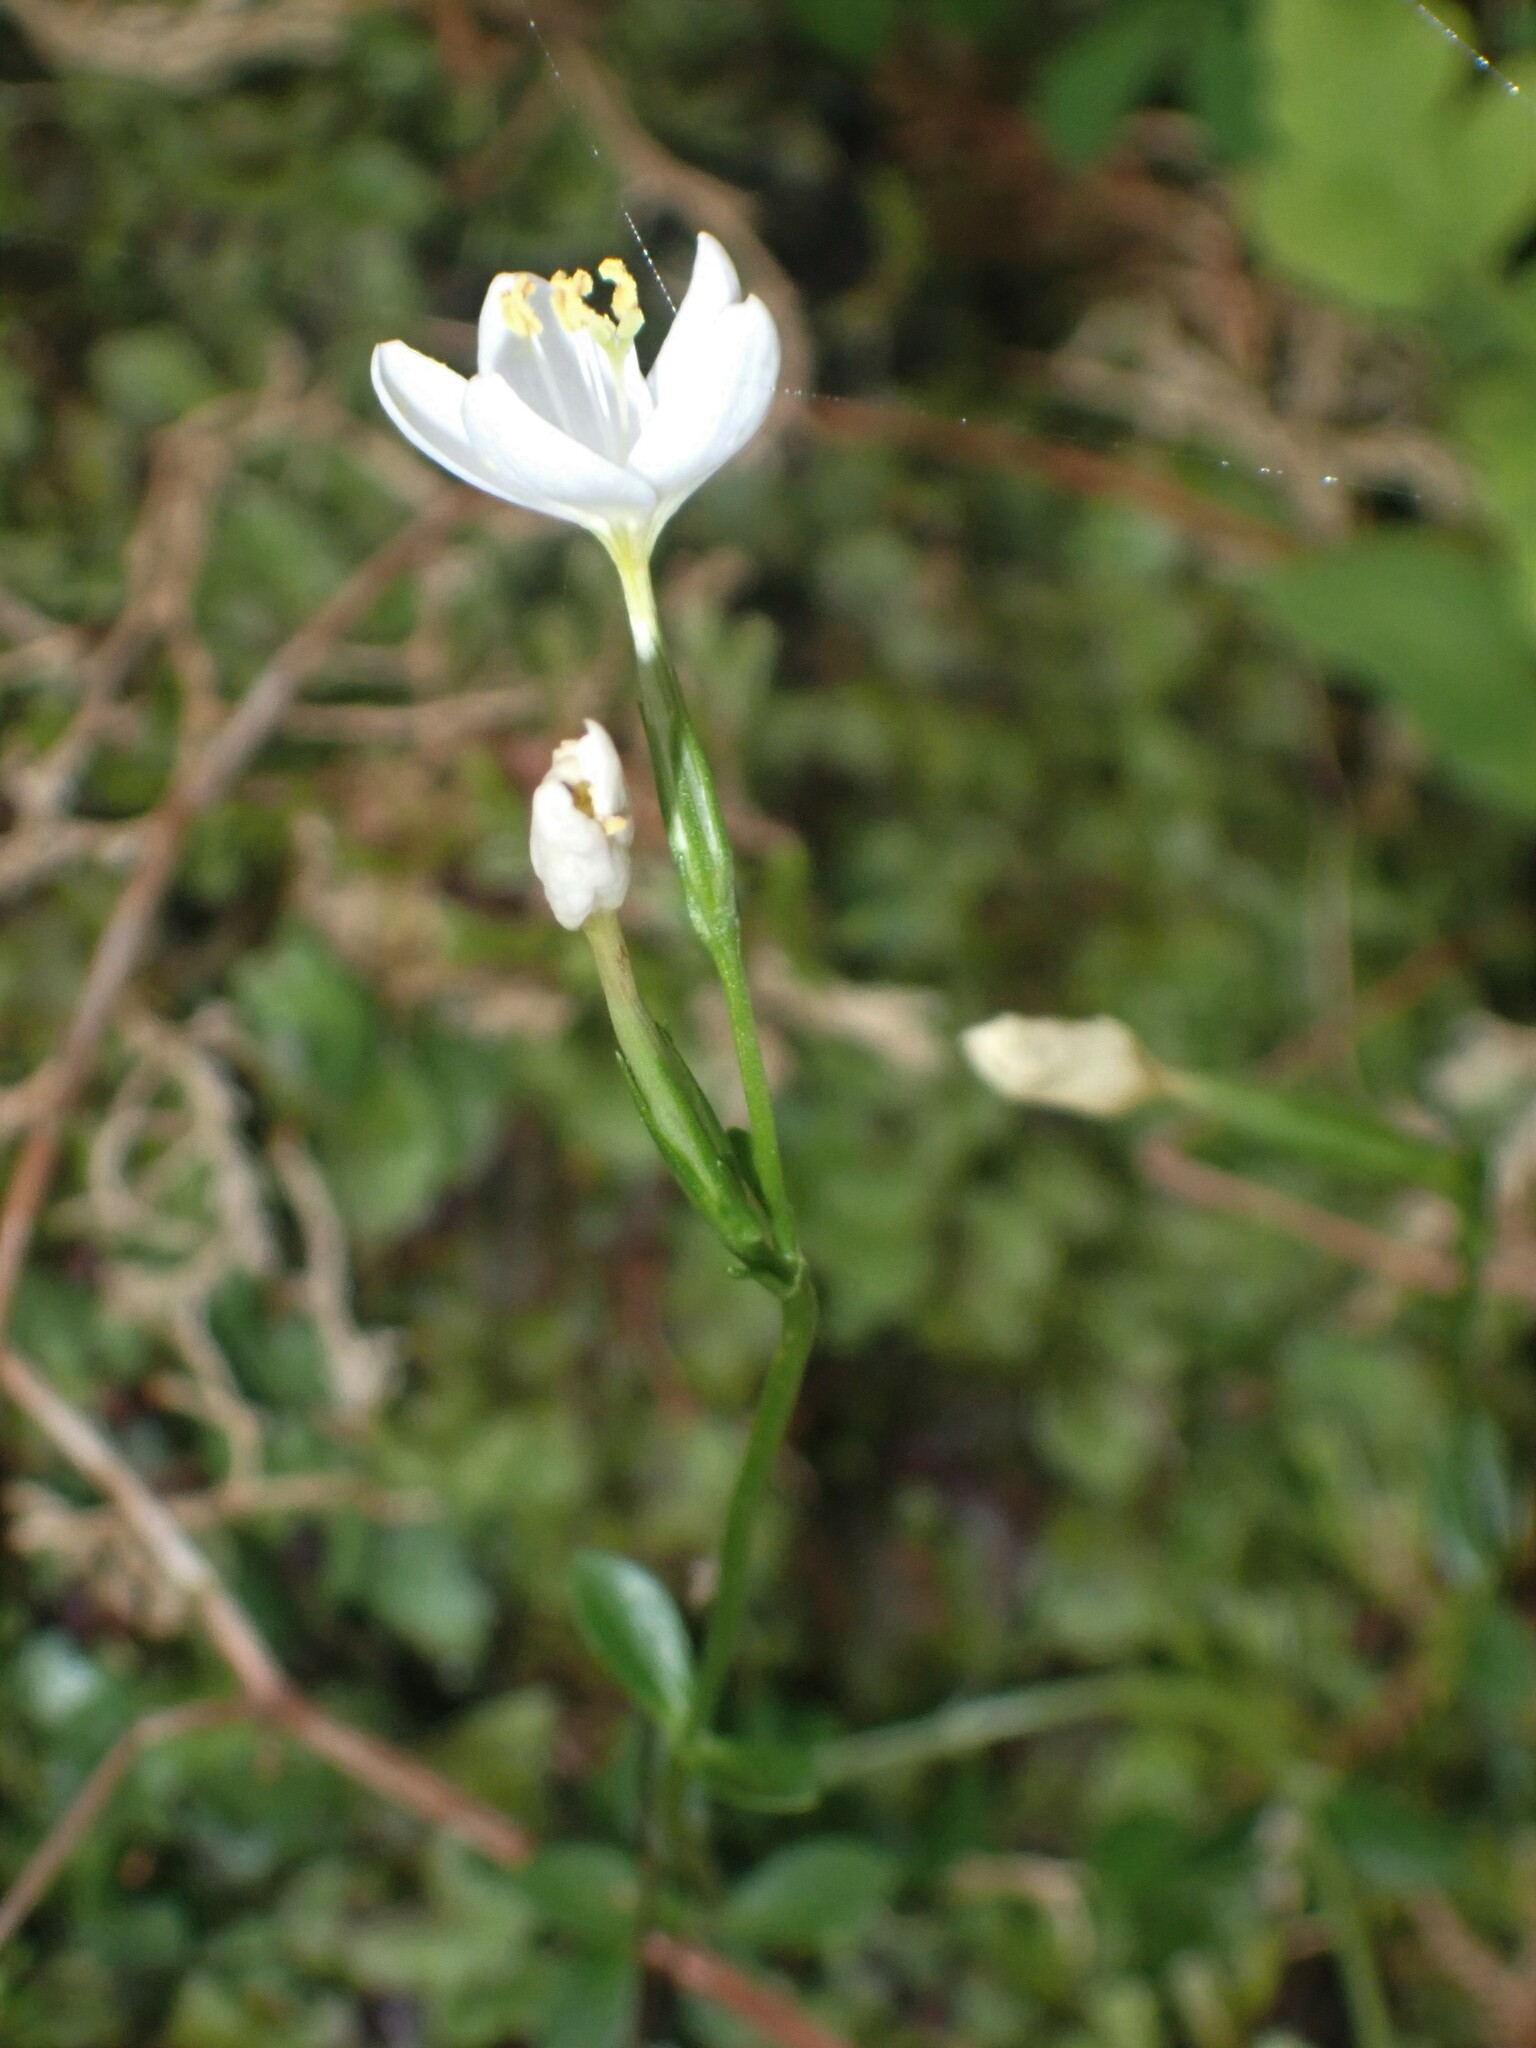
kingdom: Plantae
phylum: Tracheophyta
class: Magnoliopsida
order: Gentianales
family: Gentianaceae
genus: Centaurium
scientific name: Centaurium scilloides
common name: Perennial centaury
